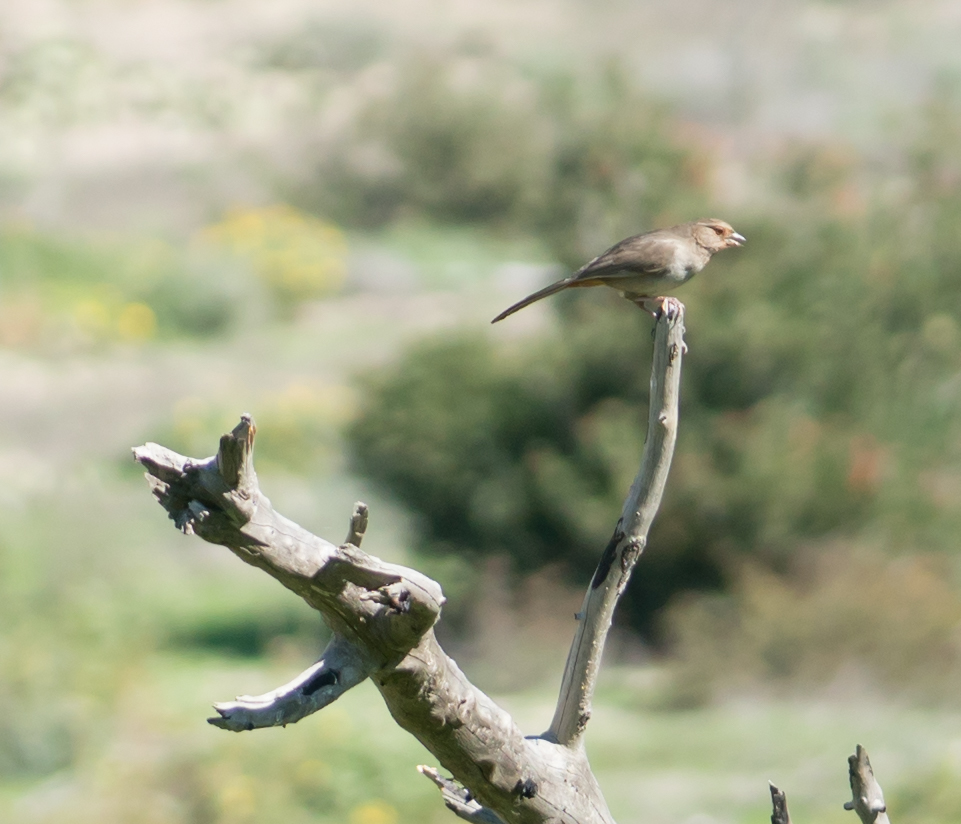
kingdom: Animalia
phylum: Chordata
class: Aves
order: Passeriformes
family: Passerellidae
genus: Melozone
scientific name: Melozone crissalis
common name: California towhee
